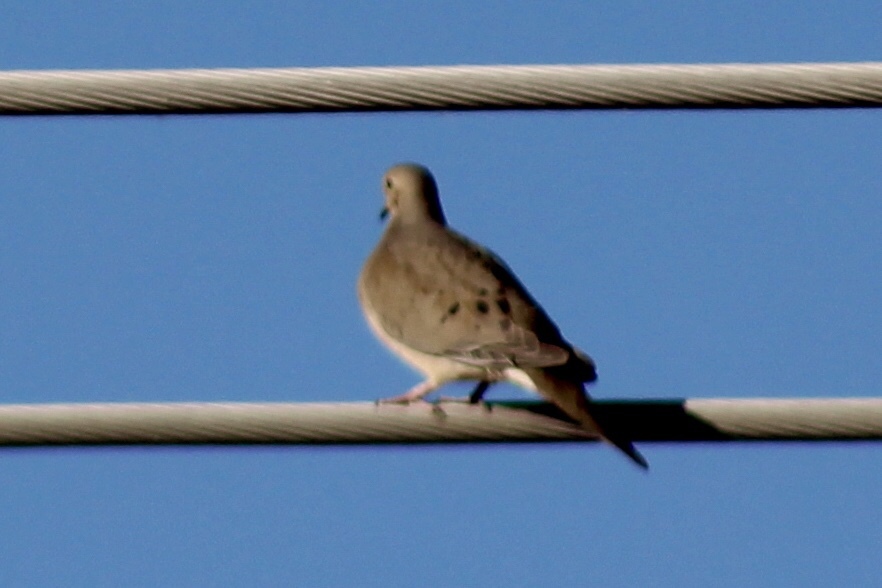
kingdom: Animalia
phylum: Chordata
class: Aves
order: Columbiformes
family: Columbidae
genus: Zenaida
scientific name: Zenaida macroura
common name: Mourning dove
